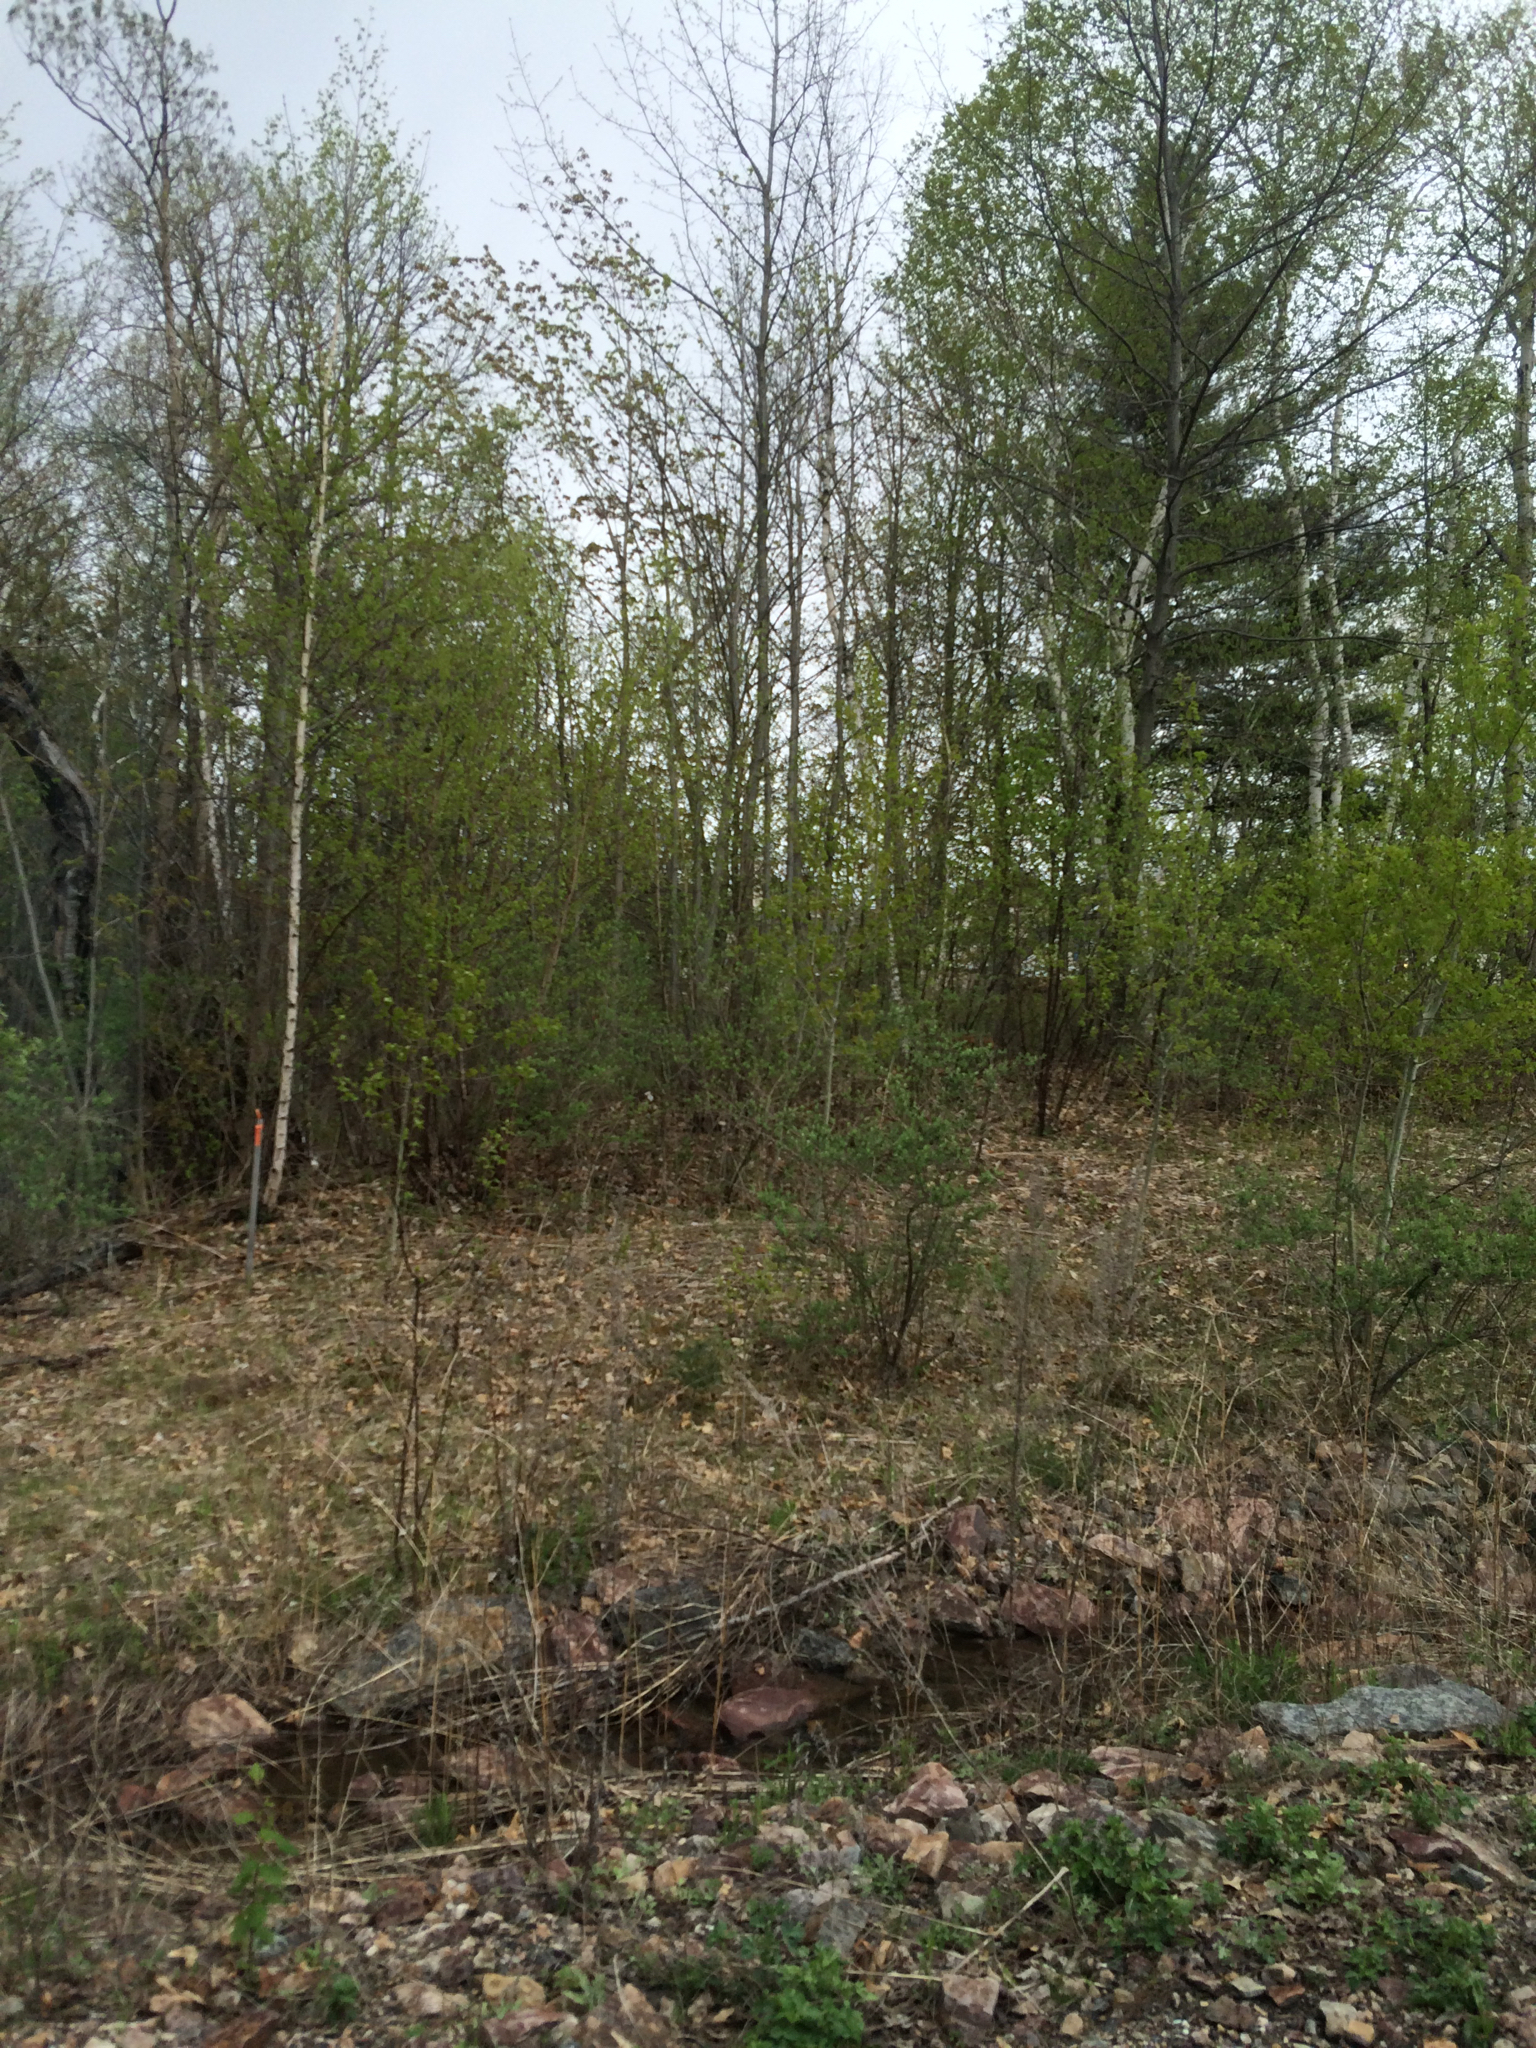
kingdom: Plantae
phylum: Tracheophyta
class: Pinopsida
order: Pinales
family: Pinaceae
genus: Pinus
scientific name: Pinus strobus
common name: Weymouth pine
